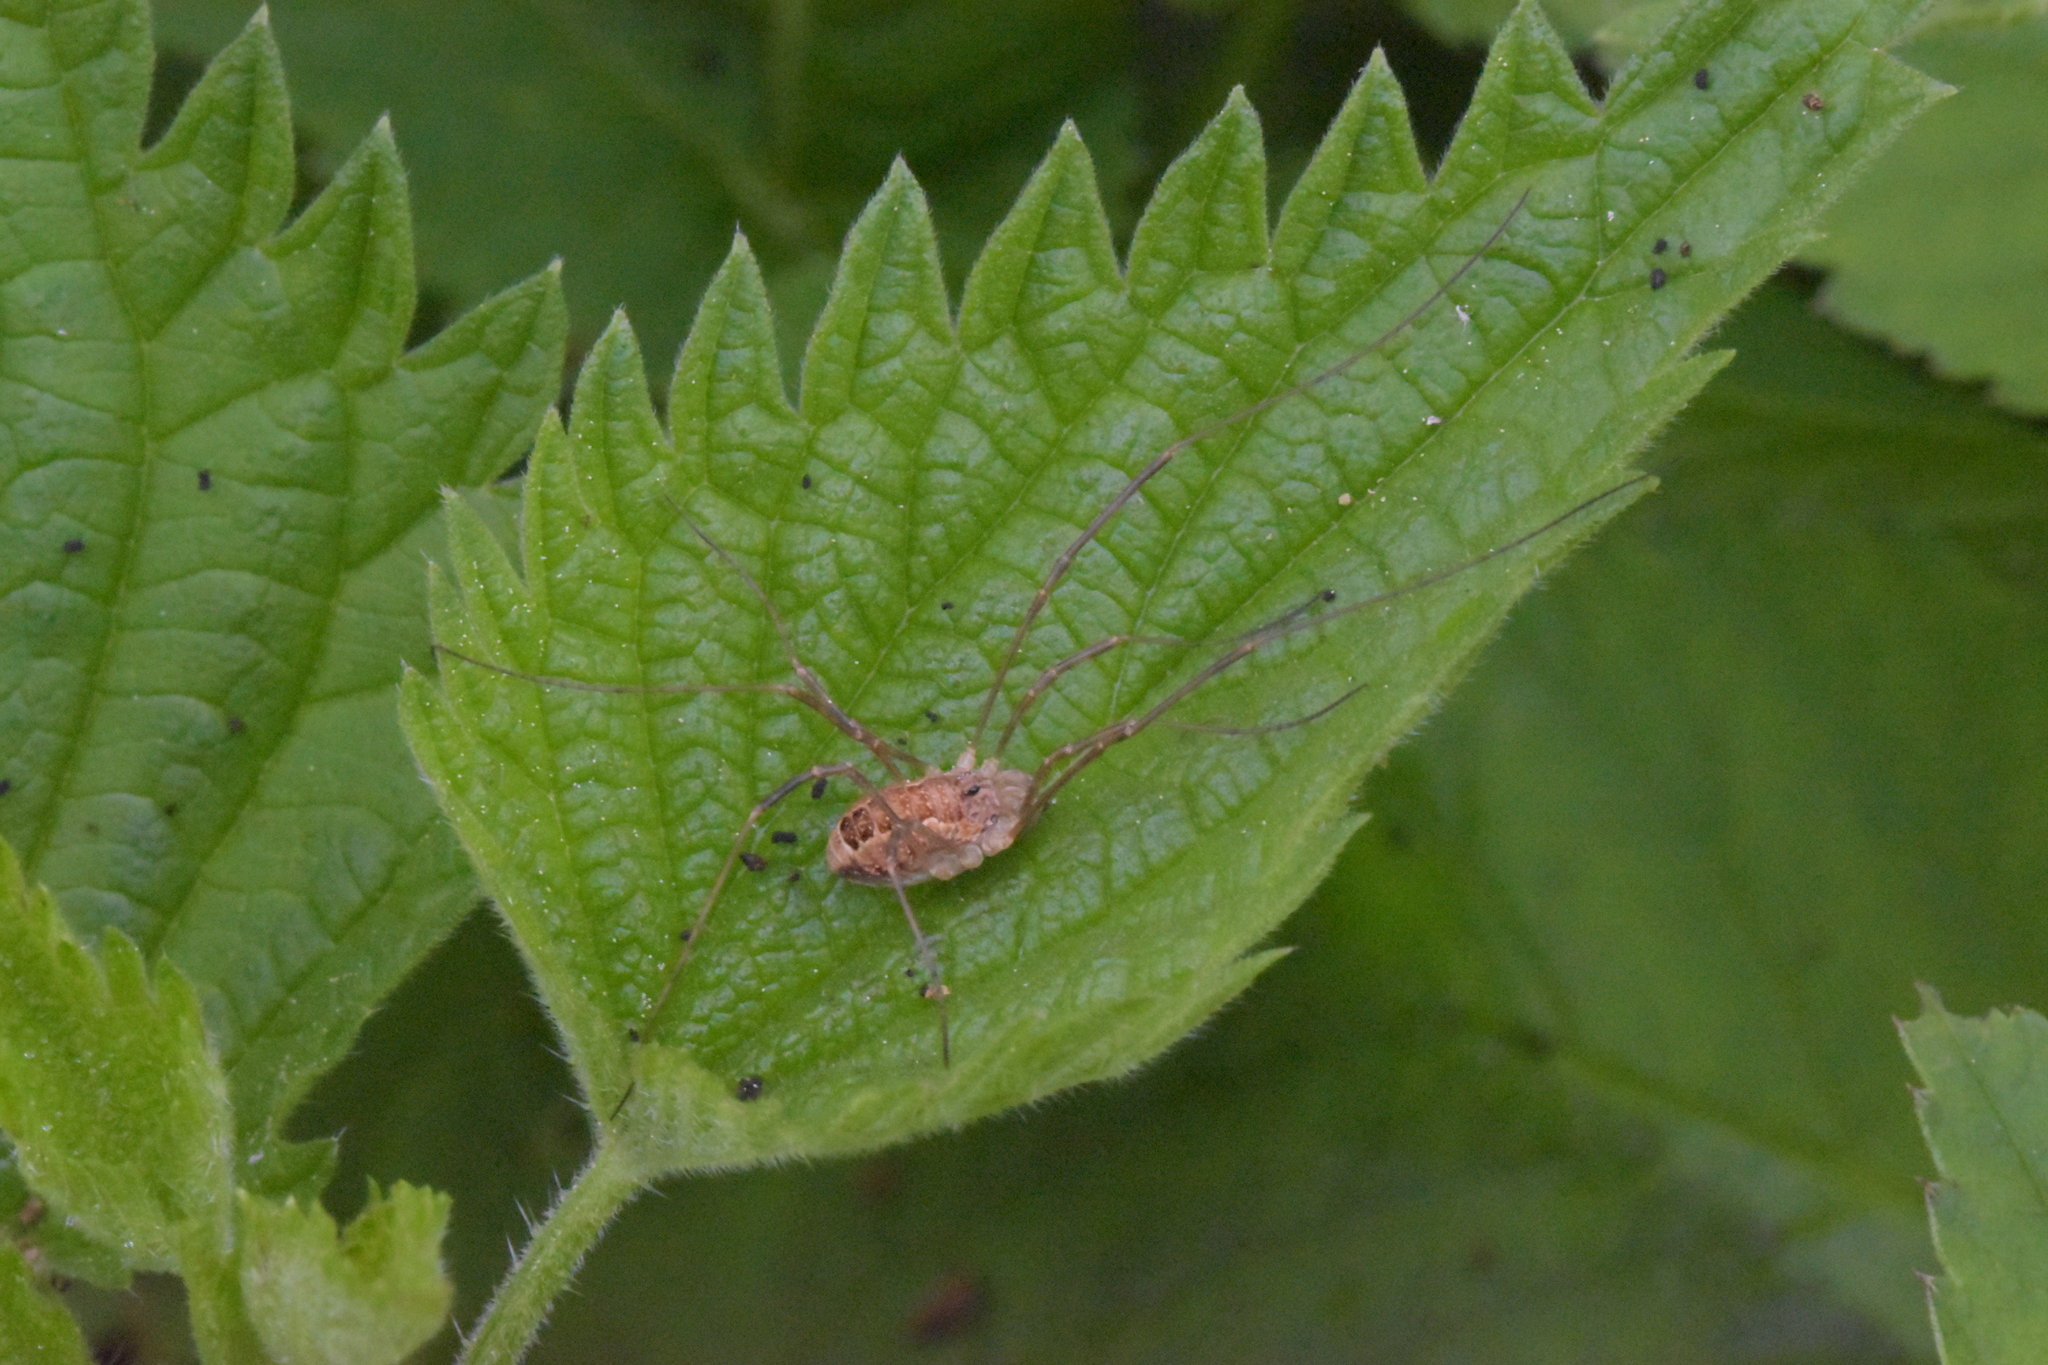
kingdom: Animalia
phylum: Arthropoda
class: Arachnida
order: Opiliones
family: Phalangiidae
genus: Rilaena
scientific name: Rilaena triangularis
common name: Spring harvestman
